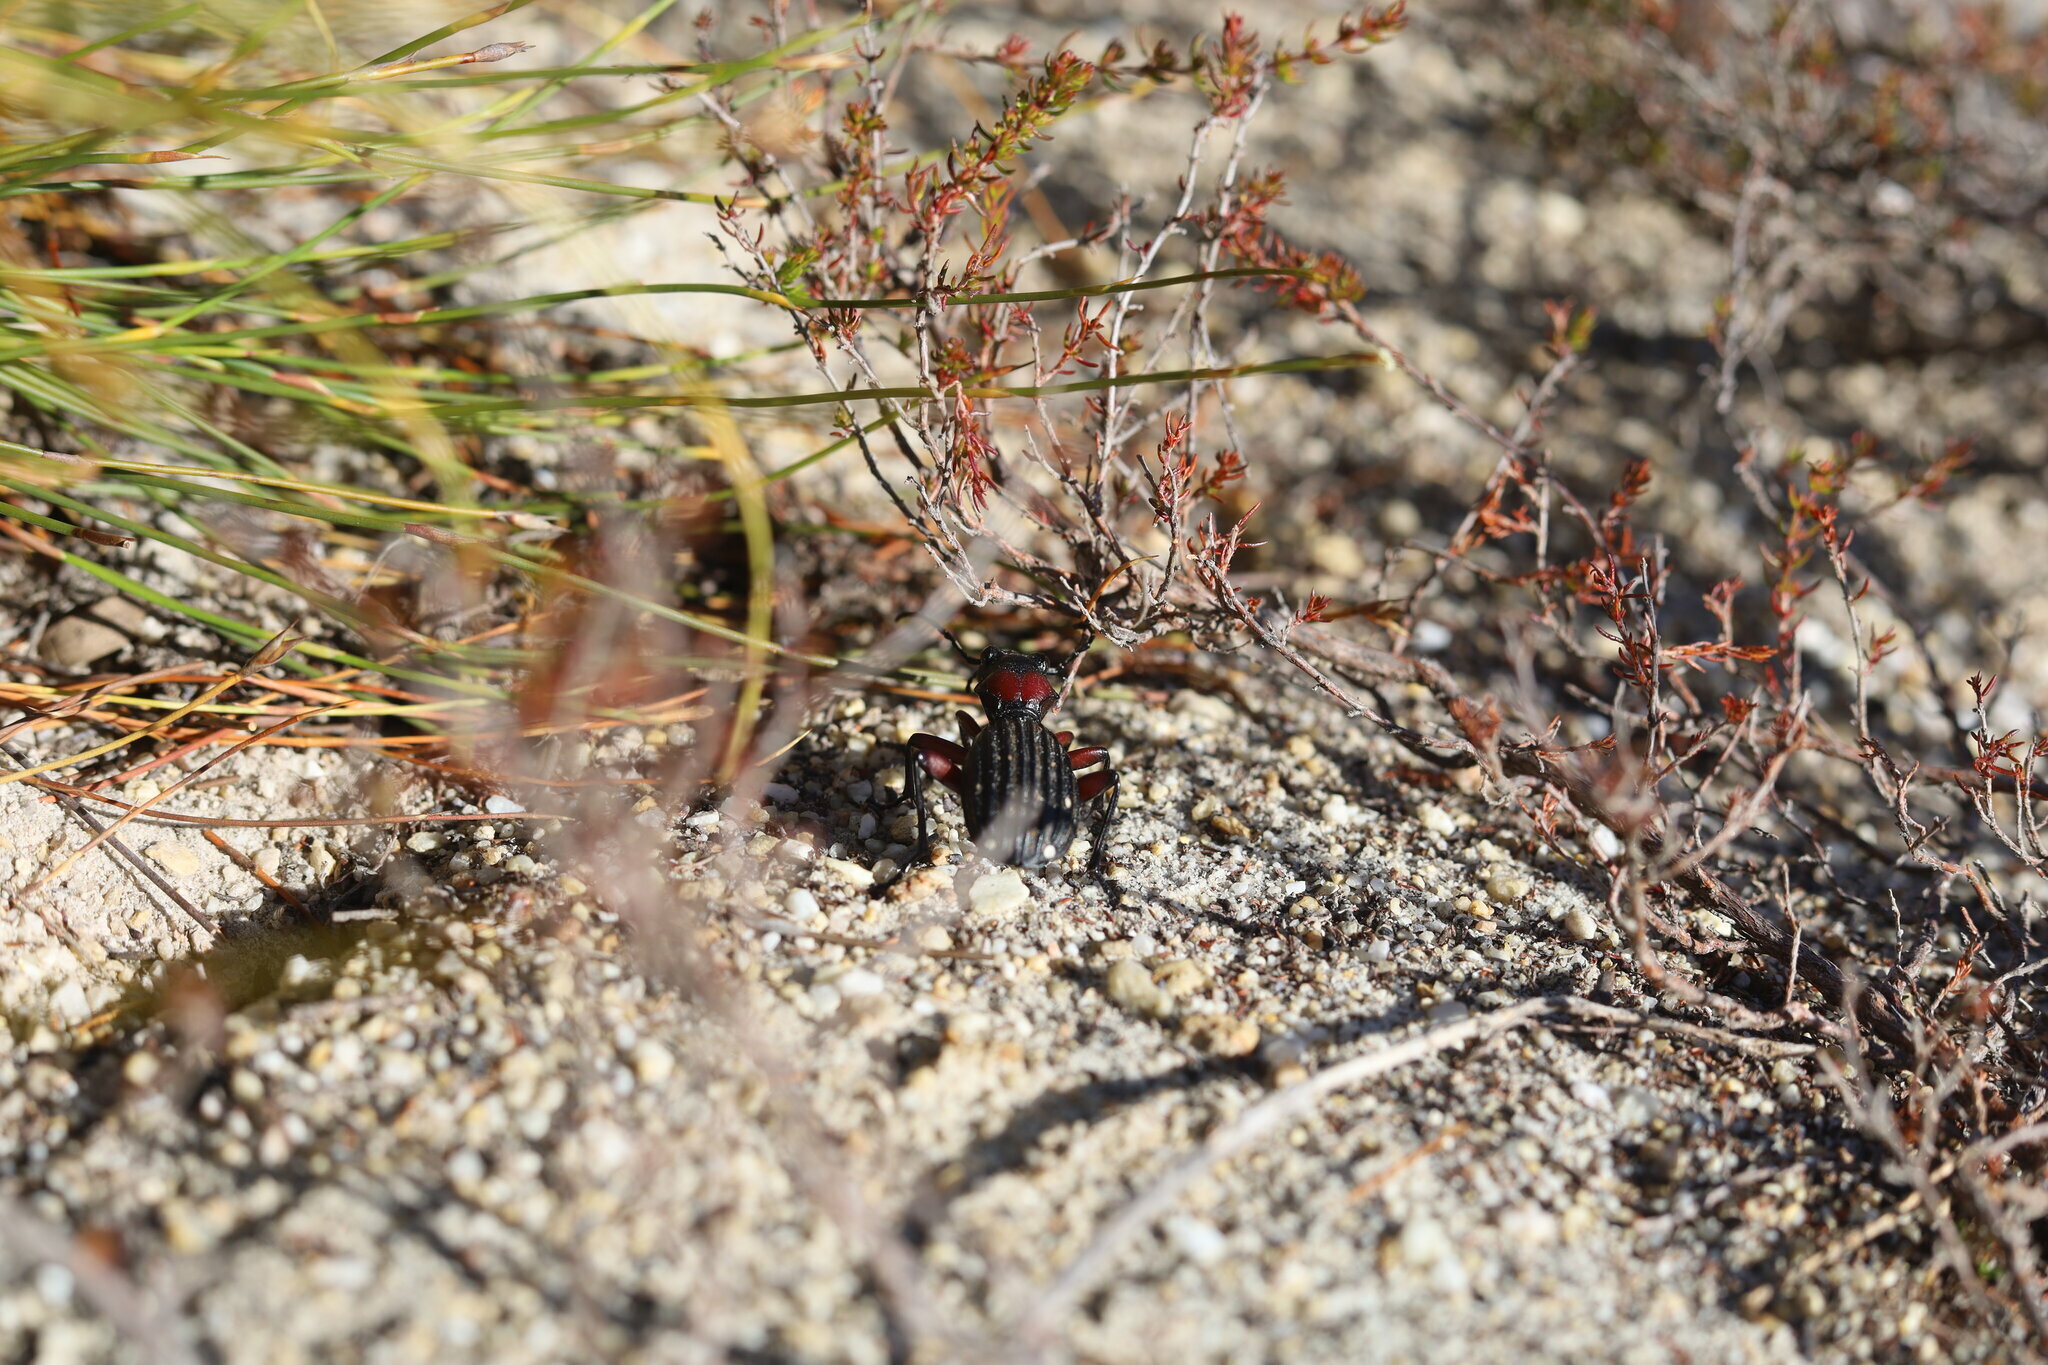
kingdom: Animalia
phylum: Arthropoda
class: Insecta
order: Coleoptera
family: Carabidae
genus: Anthia
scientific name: Anthia decemguttata
